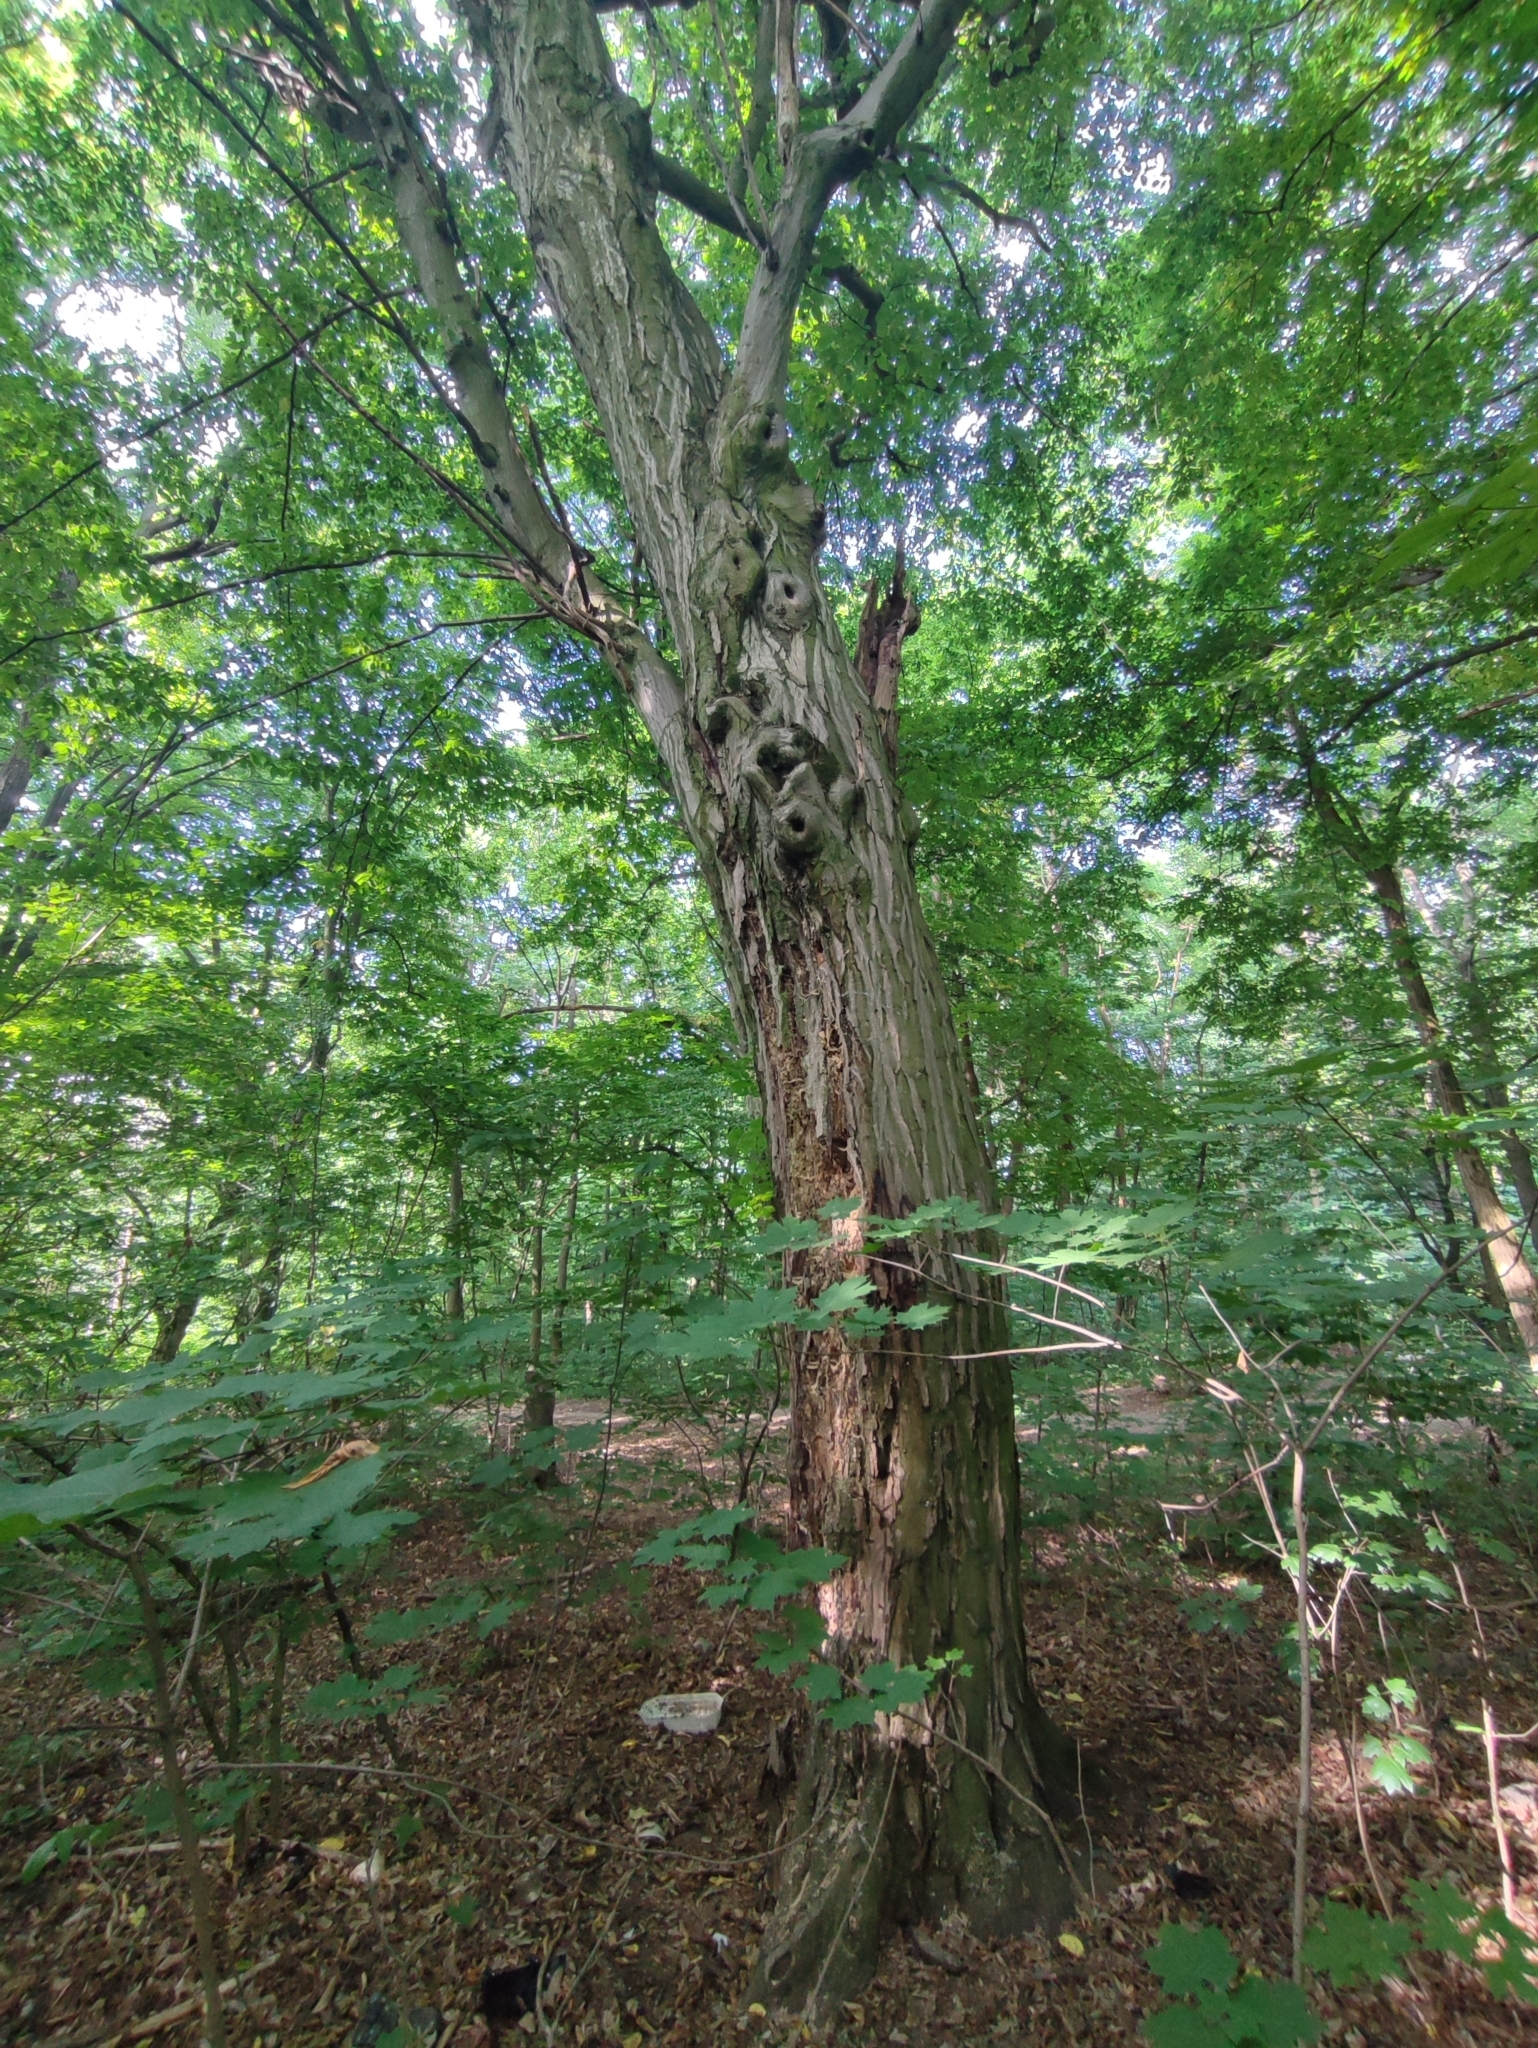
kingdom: Plantae
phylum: Tracheophyta
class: Magnoliopsida
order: Fagales
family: Betulaceae
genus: Carpinus
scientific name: Carpinus betulus
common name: Hornbeam
